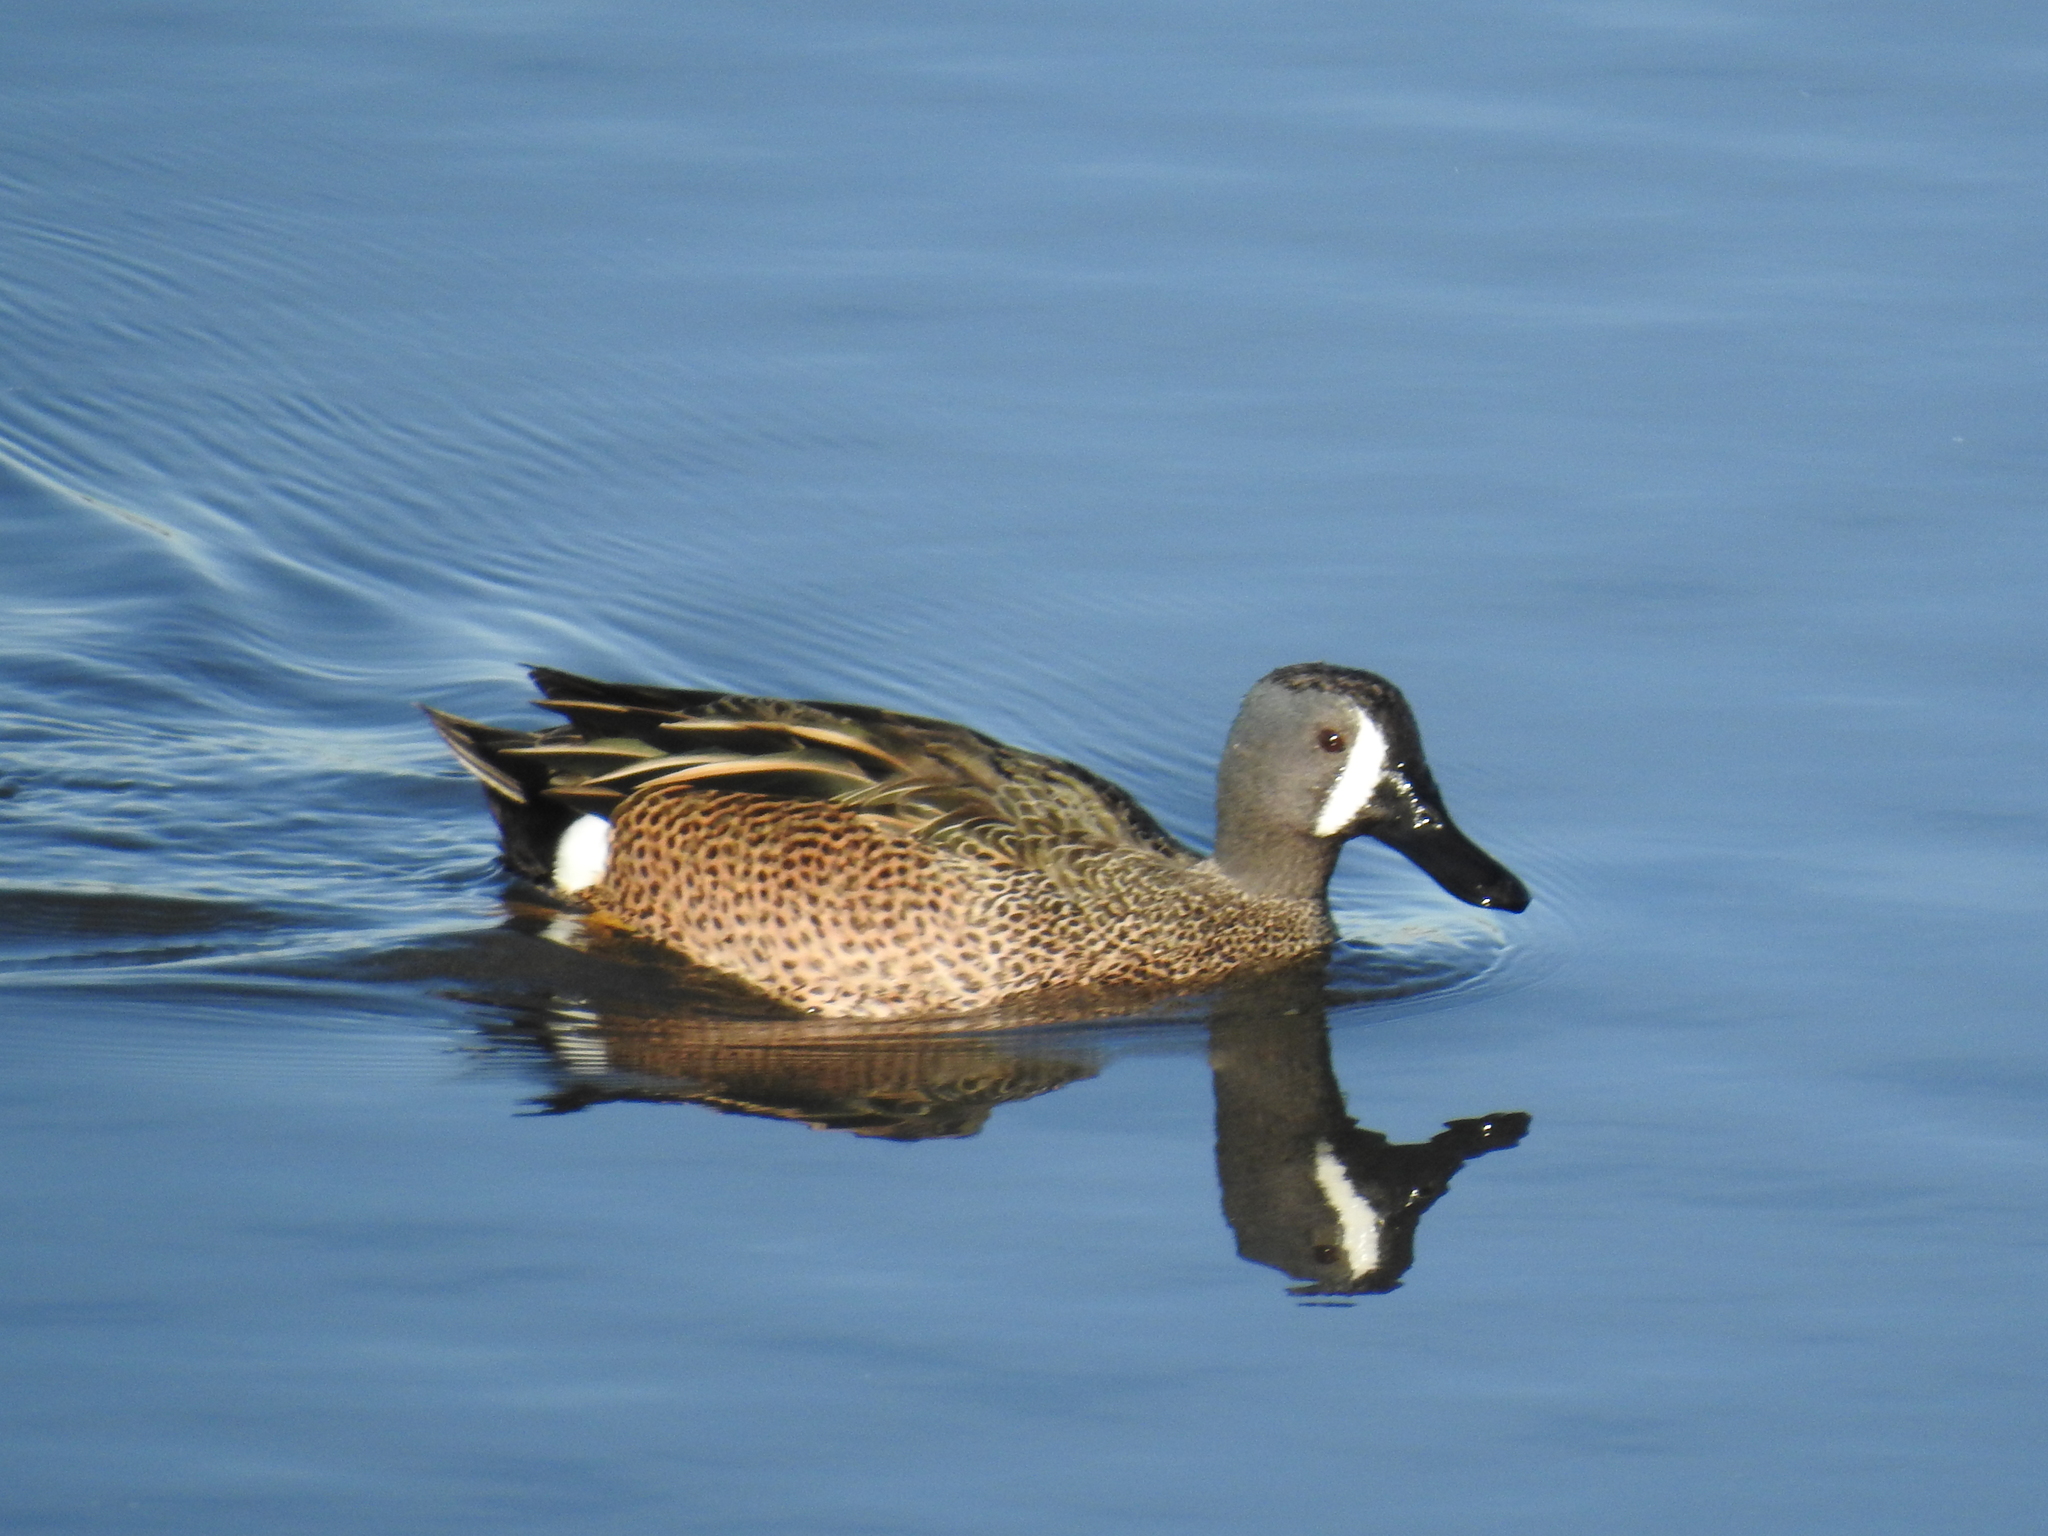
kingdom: Animalia
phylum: Chordata
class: Aves
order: Anseriformes
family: Anatidae
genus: Spatula
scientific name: Spatula discors
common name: Blue-winged teal
